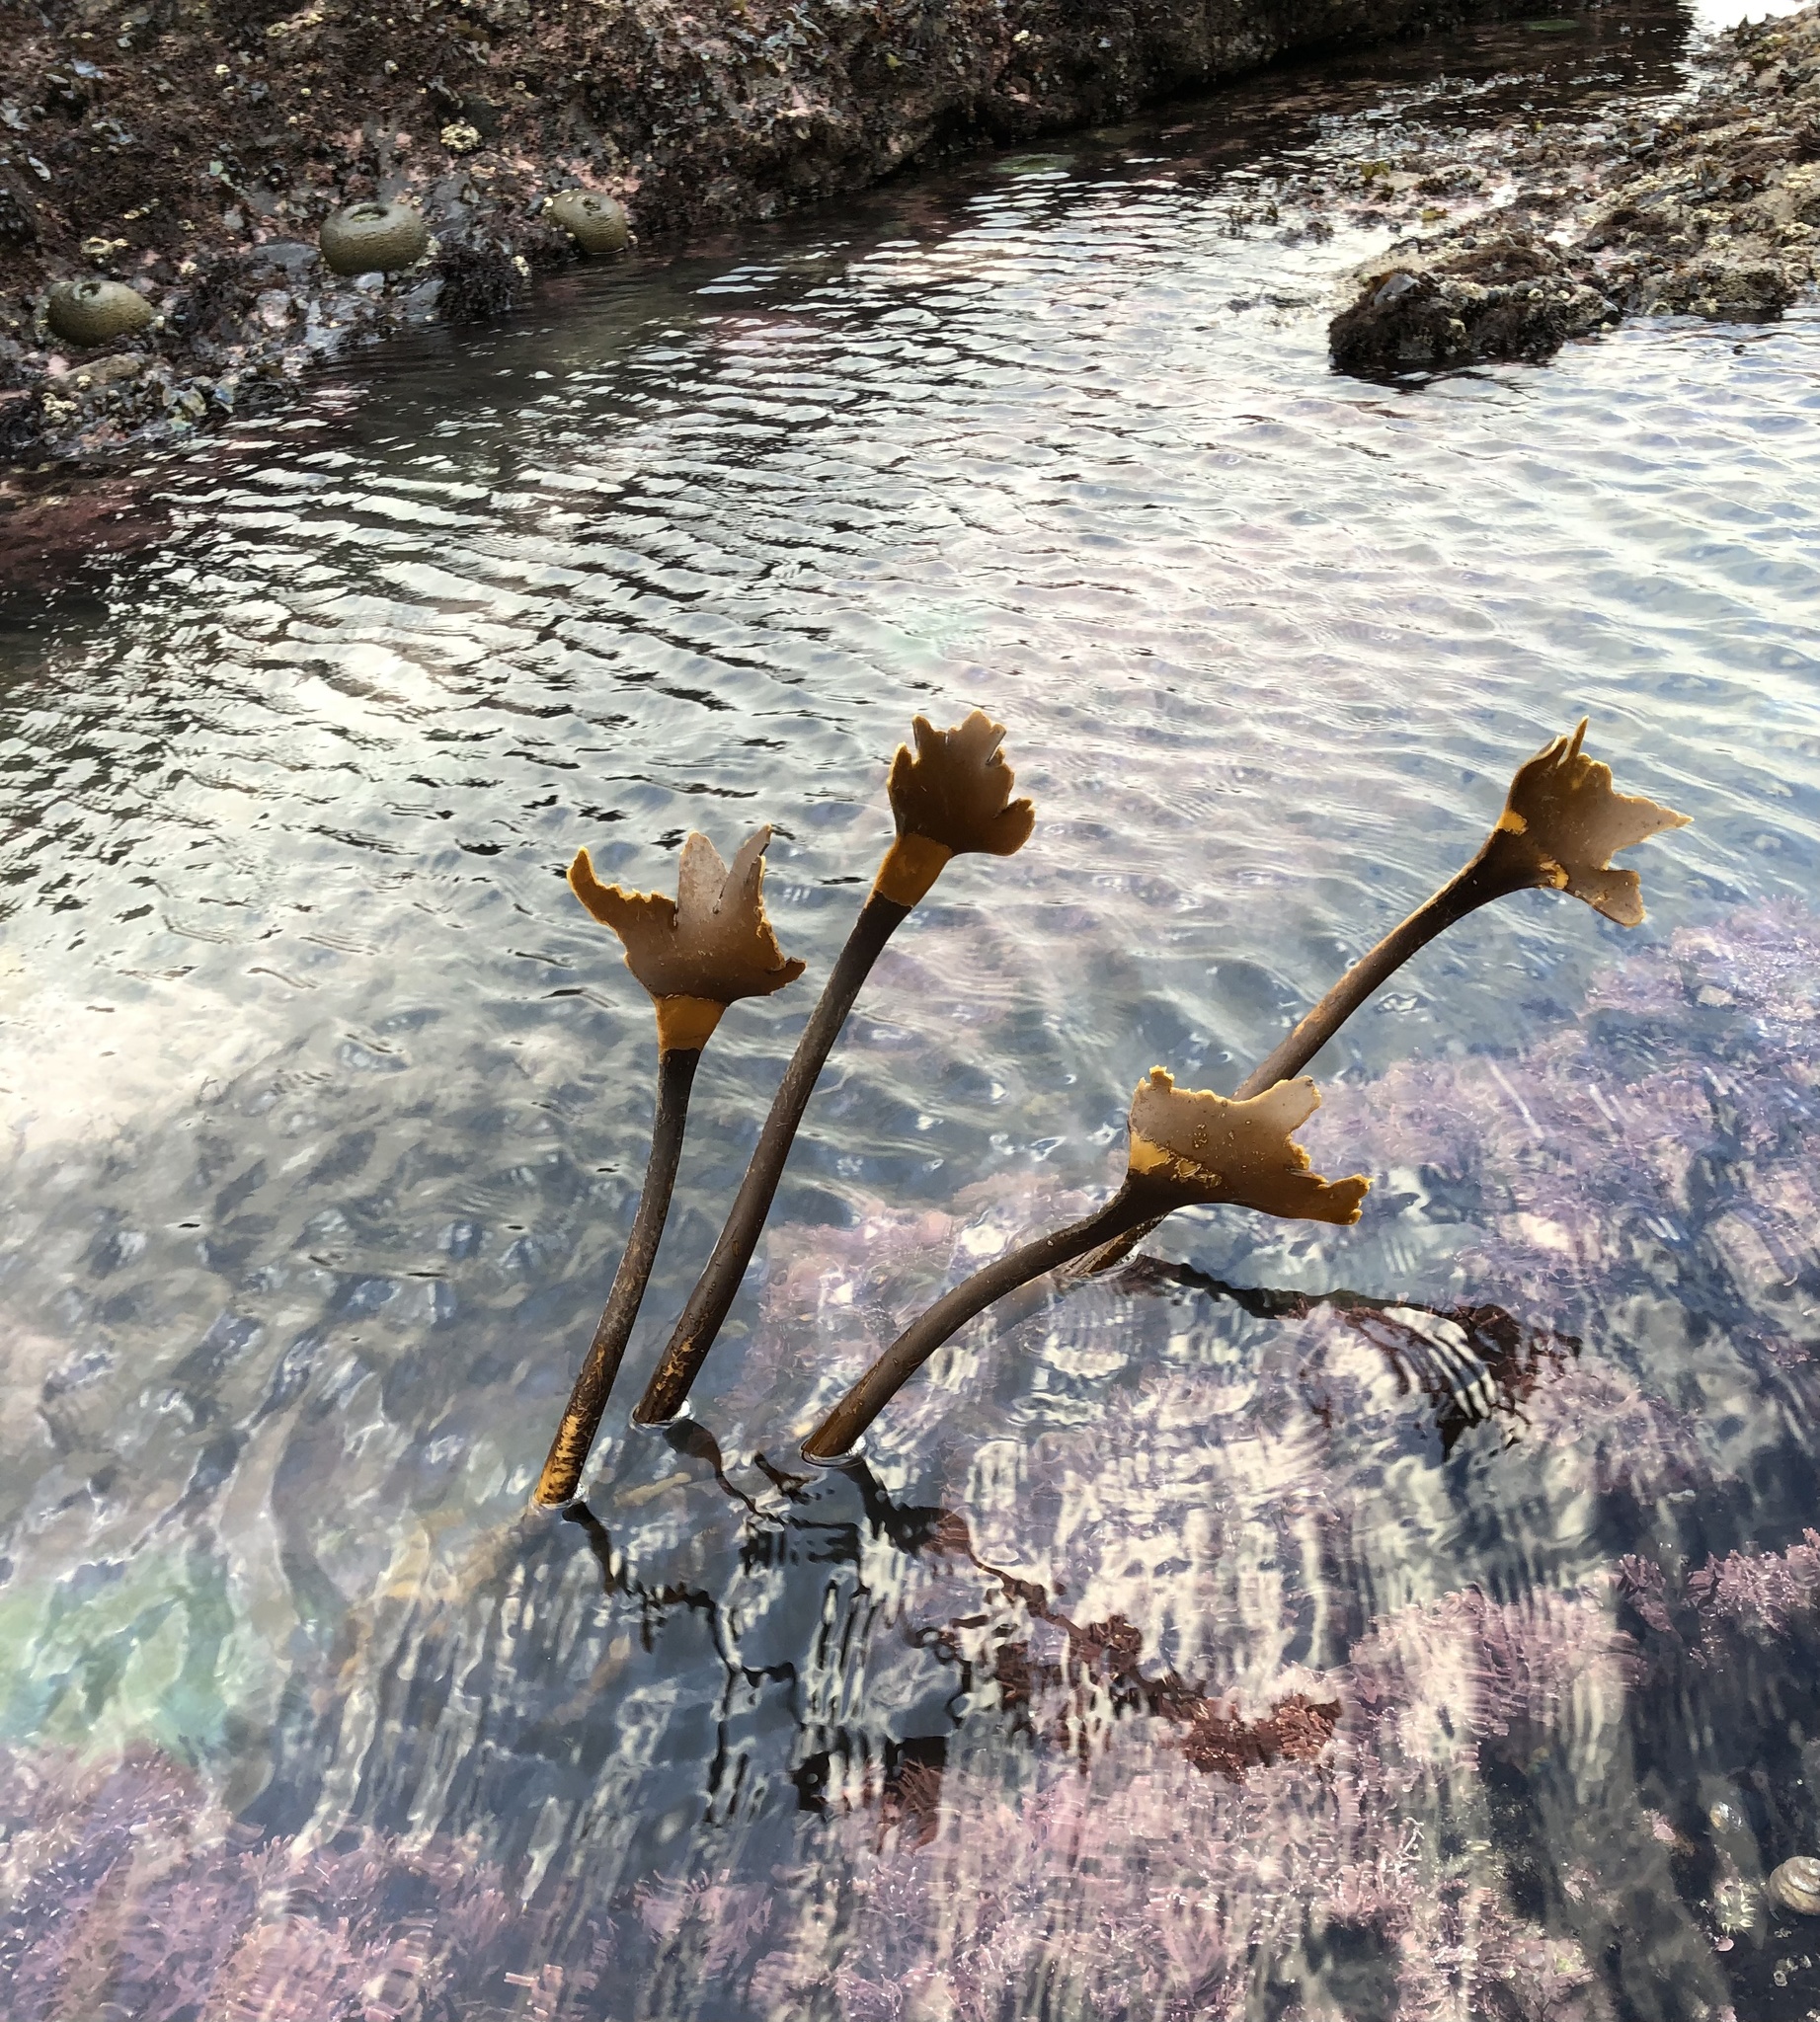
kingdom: Chromista
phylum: Ochrophyta
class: Phaeophyceae
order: Laminariales
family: Laminariaceae
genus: Laminaria
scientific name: Laminaria setchellii
